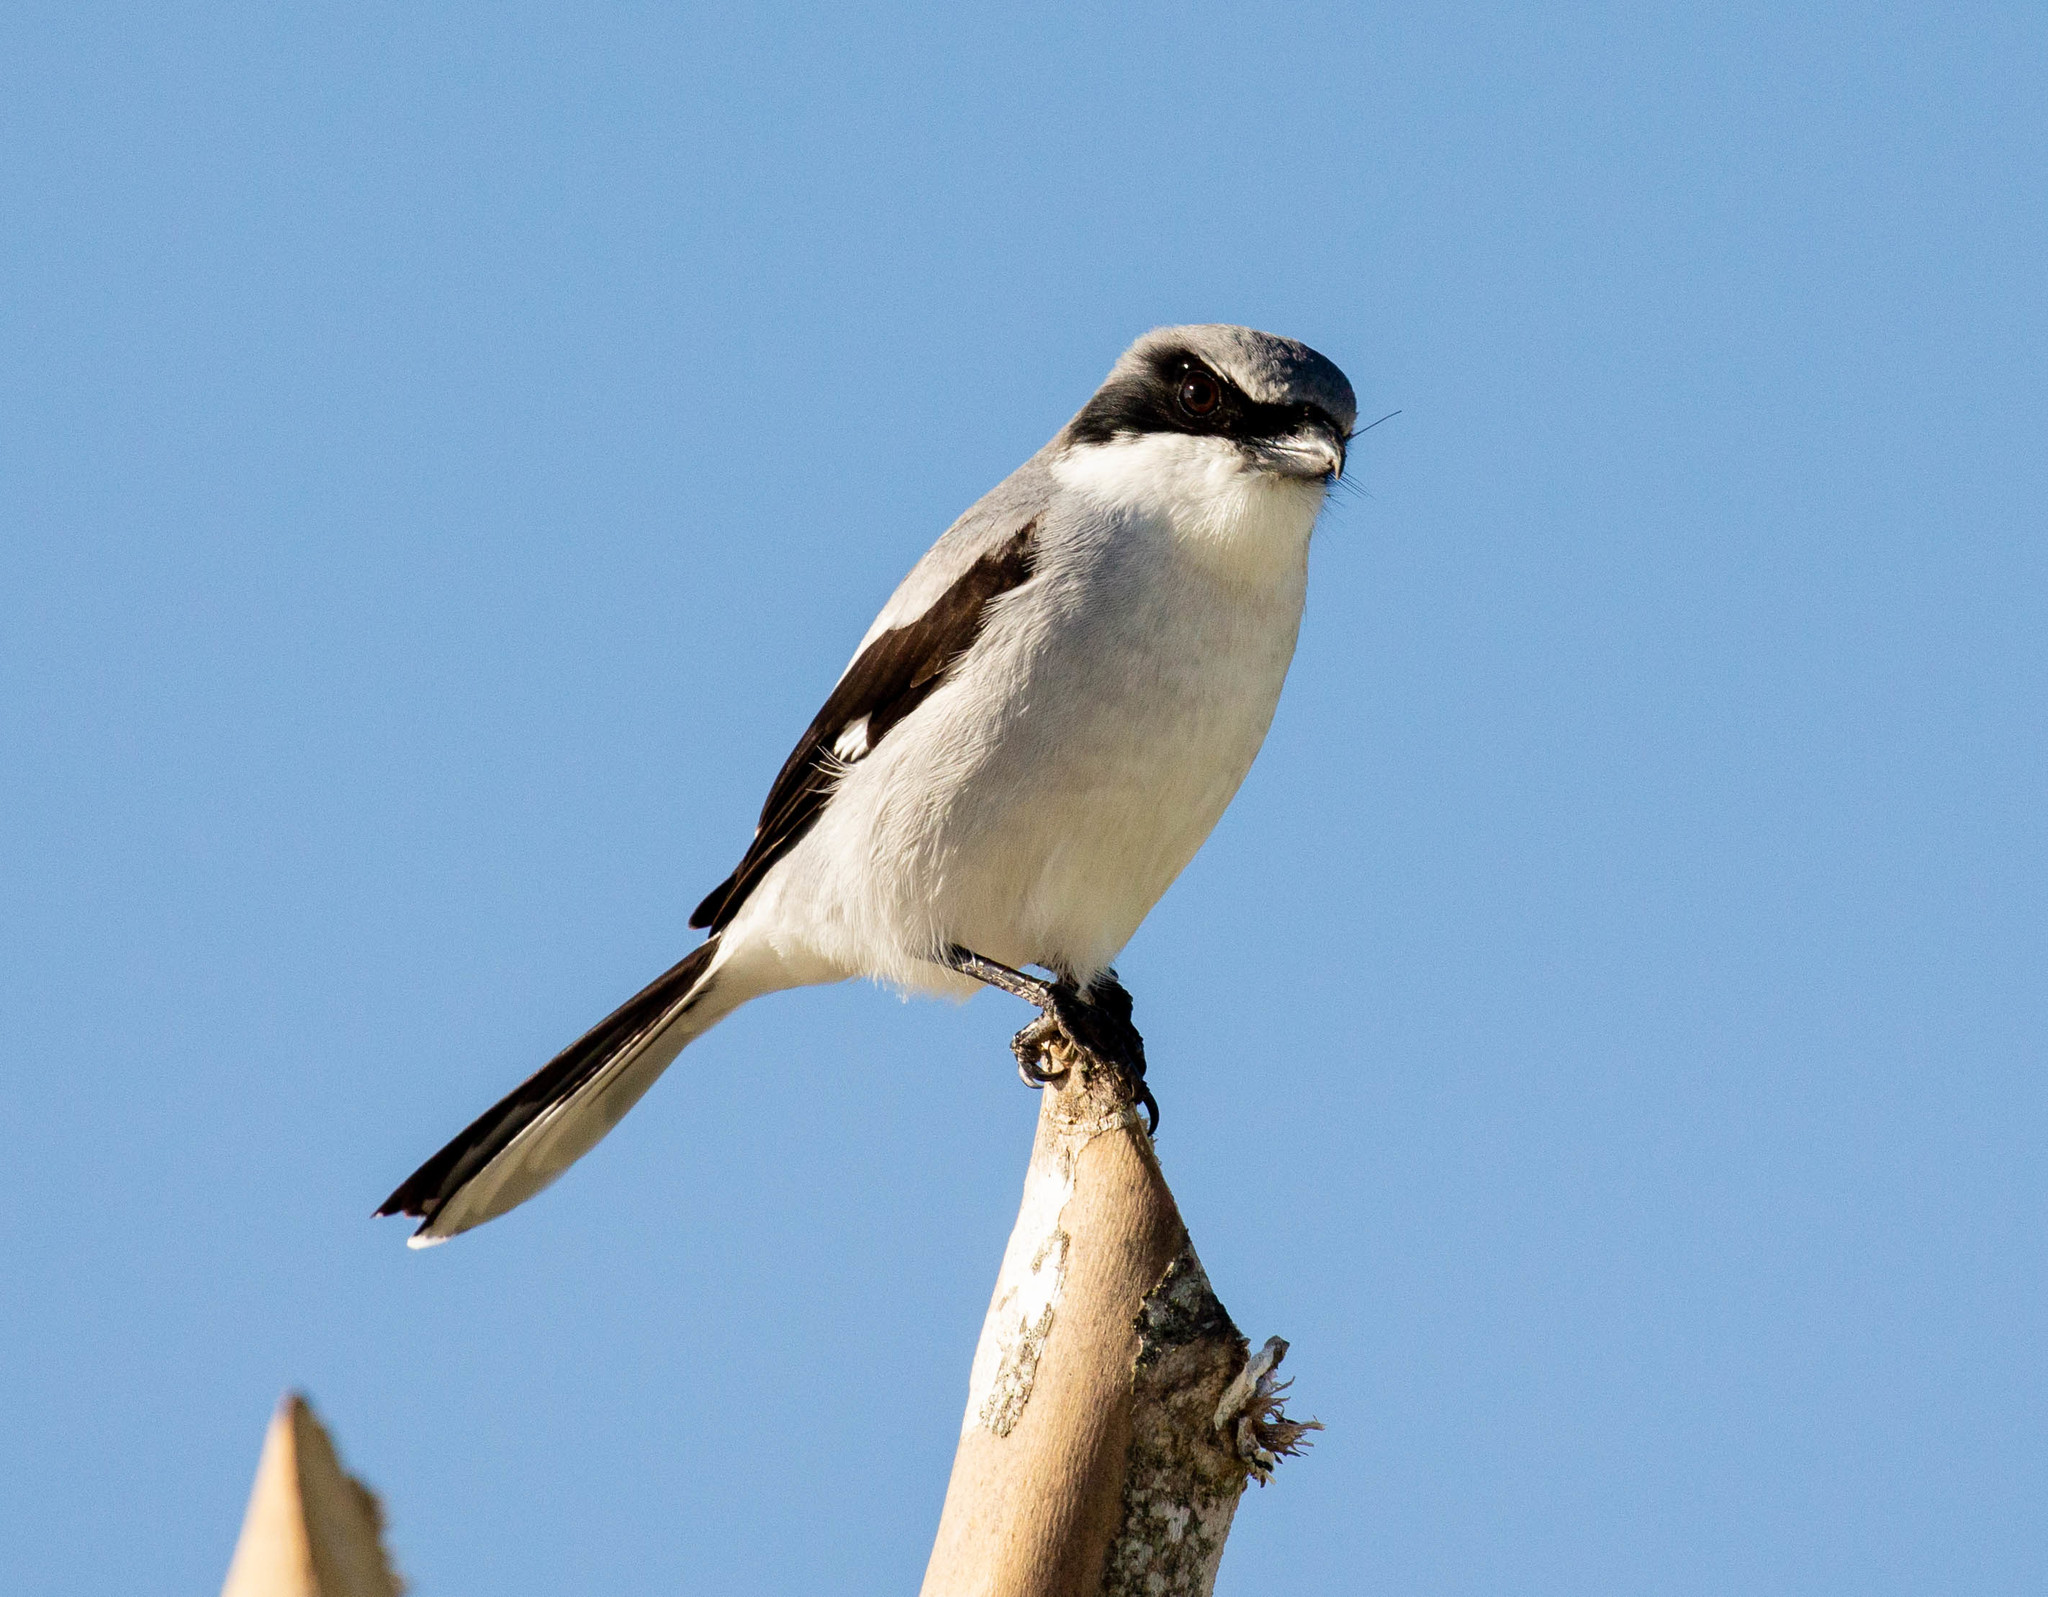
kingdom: Animalia
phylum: Chordata
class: Aves
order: Passeriformes
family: Laniidae
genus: Lanius
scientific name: Lanius ludovicianus
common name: Loggerhead shrike
